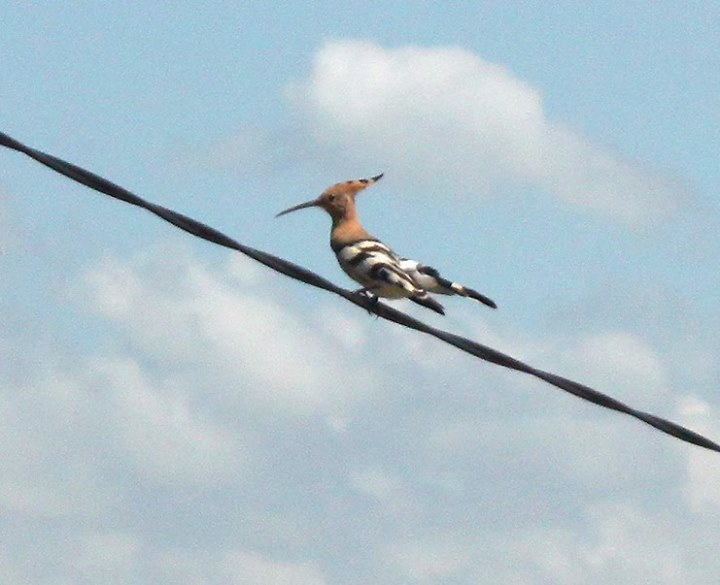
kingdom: Animalia
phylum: Chordata
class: Aves
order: Bucerotiformes
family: Upupidae
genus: Upupa
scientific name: Upupa epops
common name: Eurasian hoopoe
